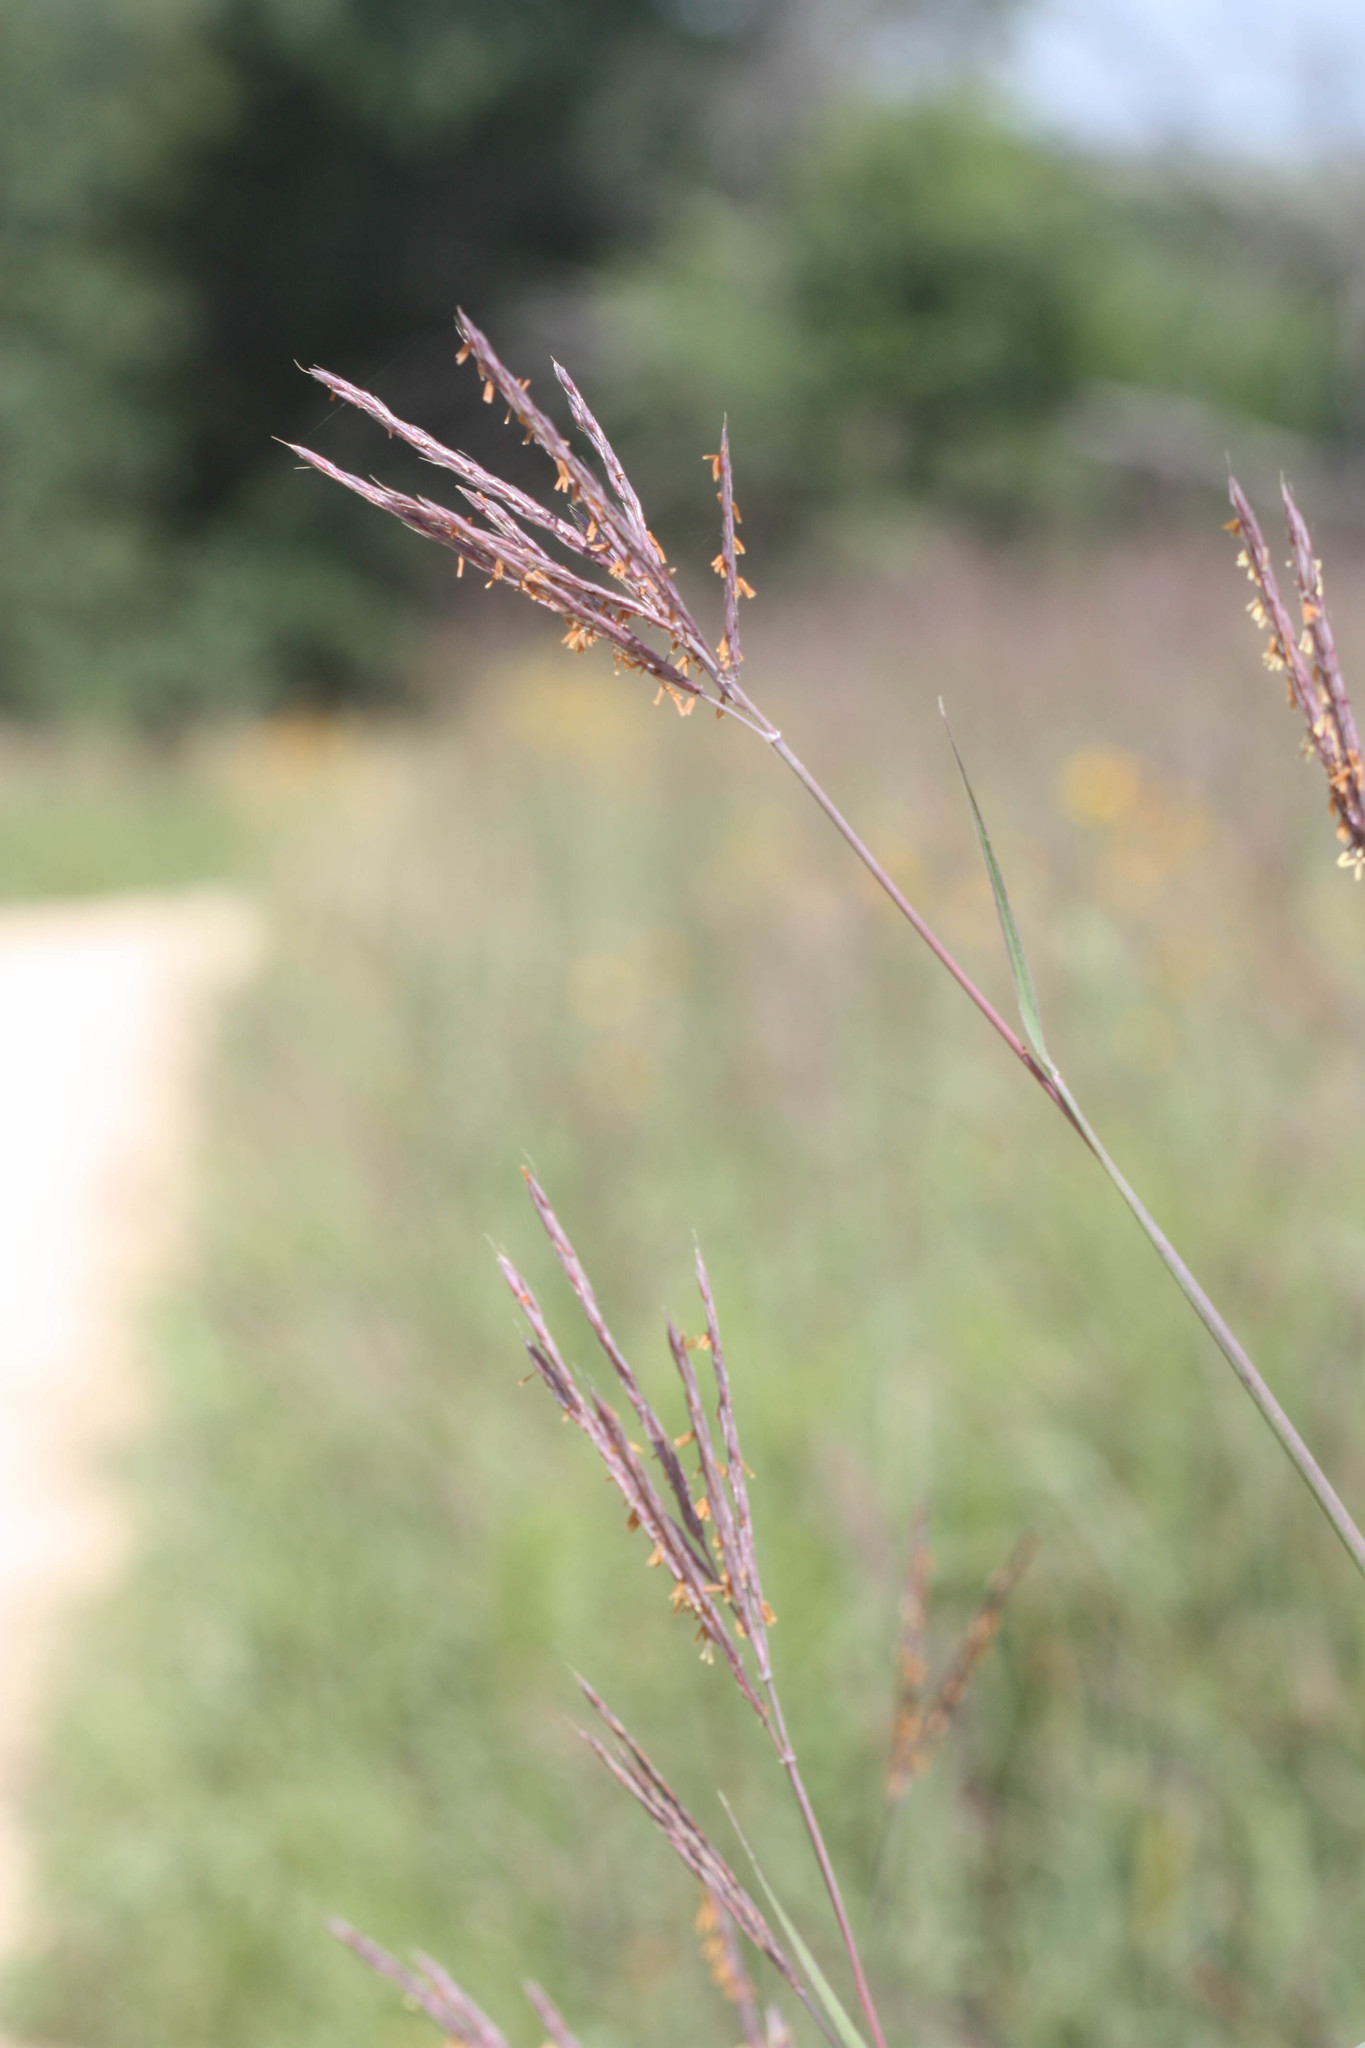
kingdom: Plantae
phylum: Tracheophyta
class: Liliopsida
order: Poales
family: Poaceae
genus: Andropogon
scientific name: Andropogon gerardi
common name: Big bluestem
